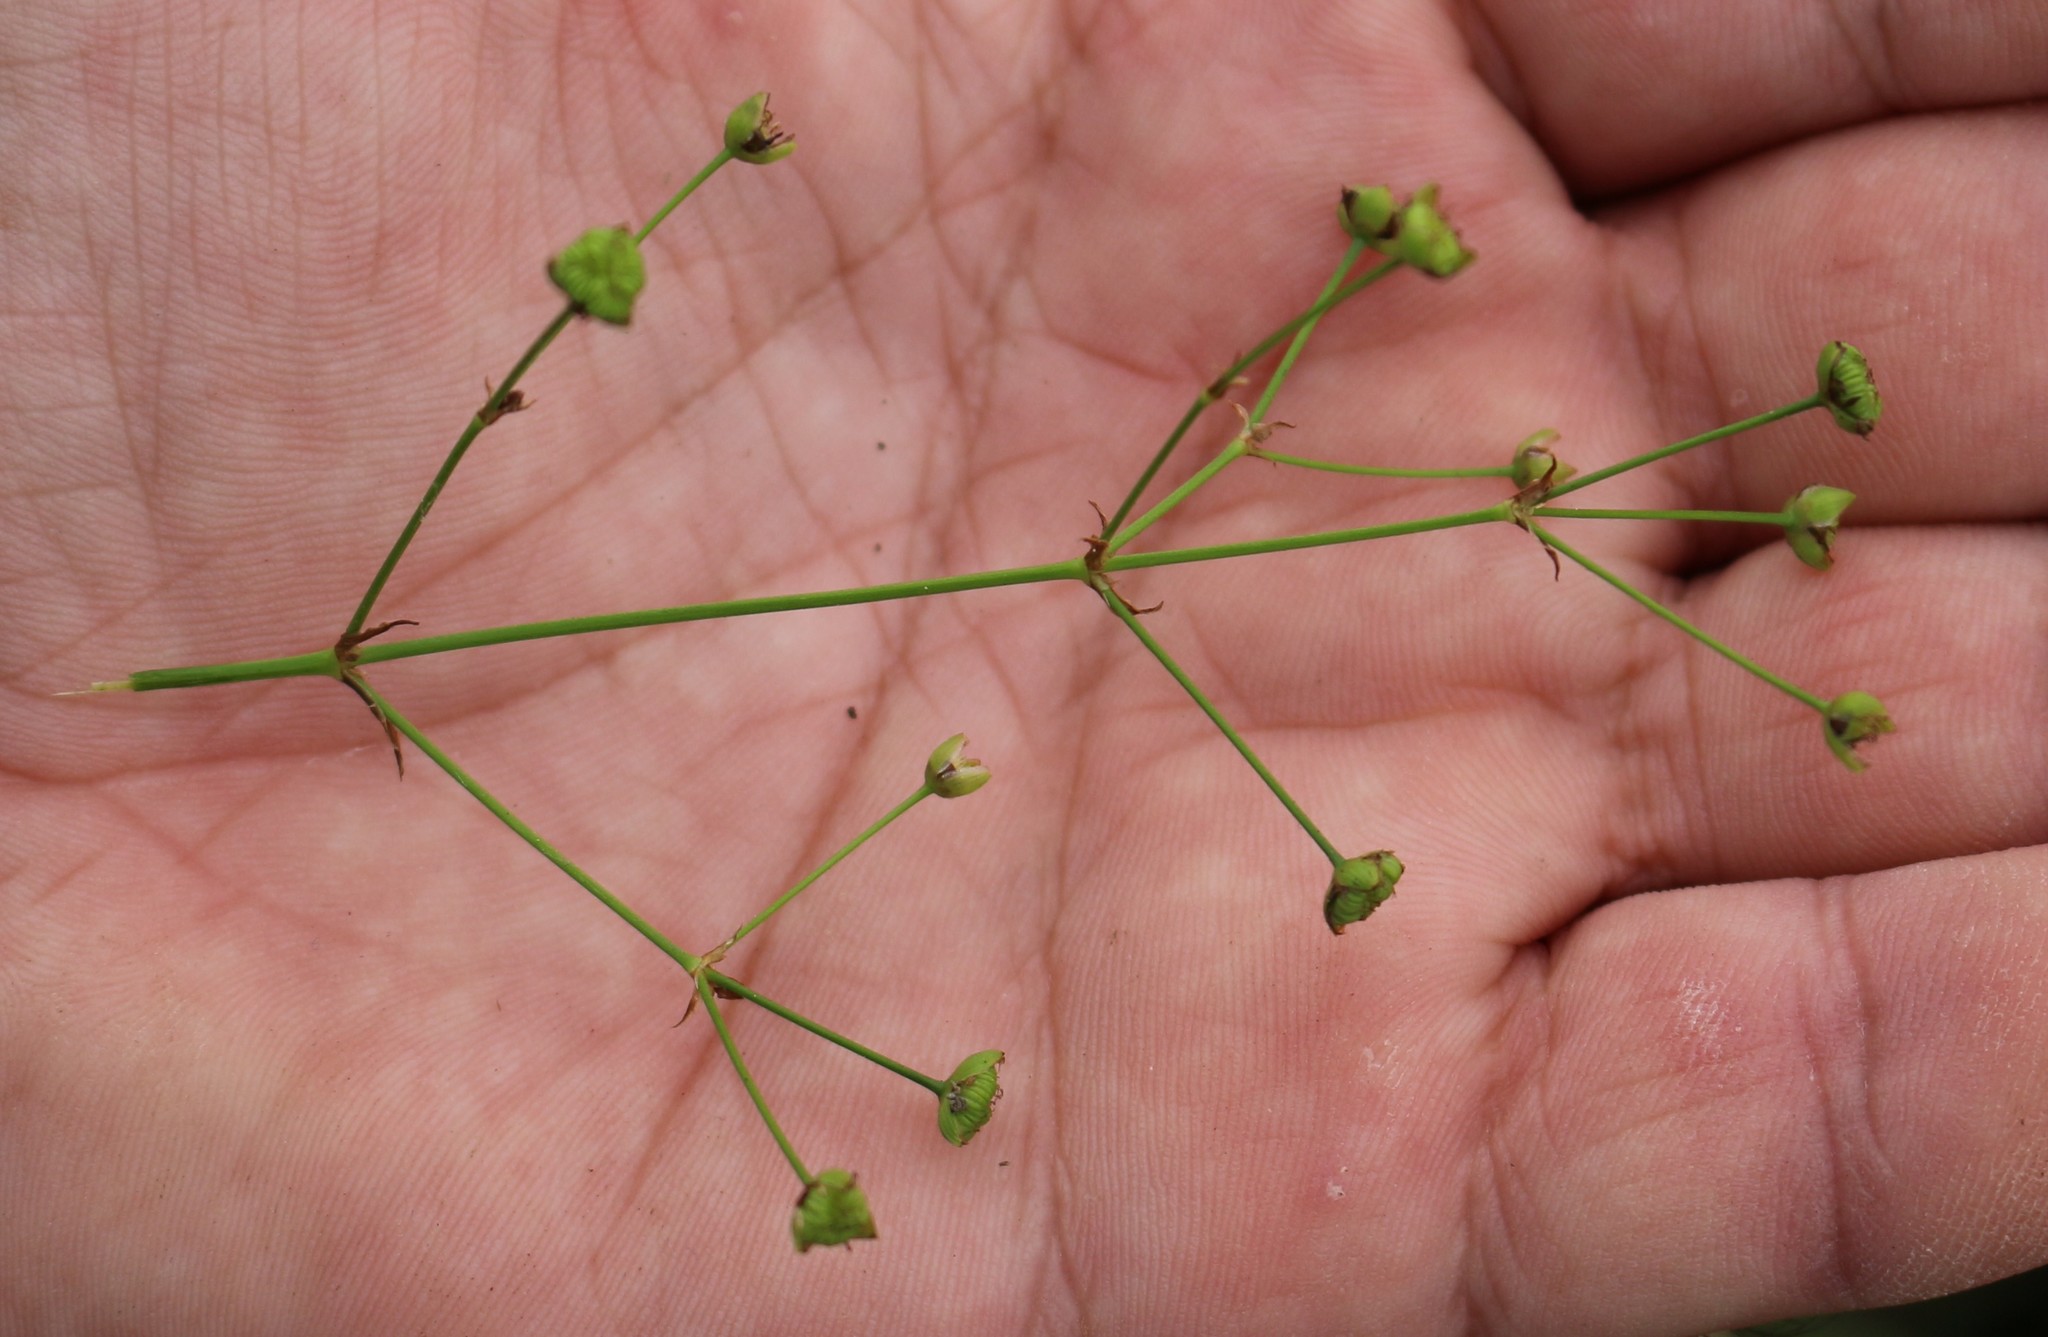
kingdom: Plantae
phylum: Tracheophyta
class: Liliopsida
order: Alismatales
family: Alismataceae
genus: Alisma
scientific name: Alisma plantago-aquatica
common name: Water-plantain
